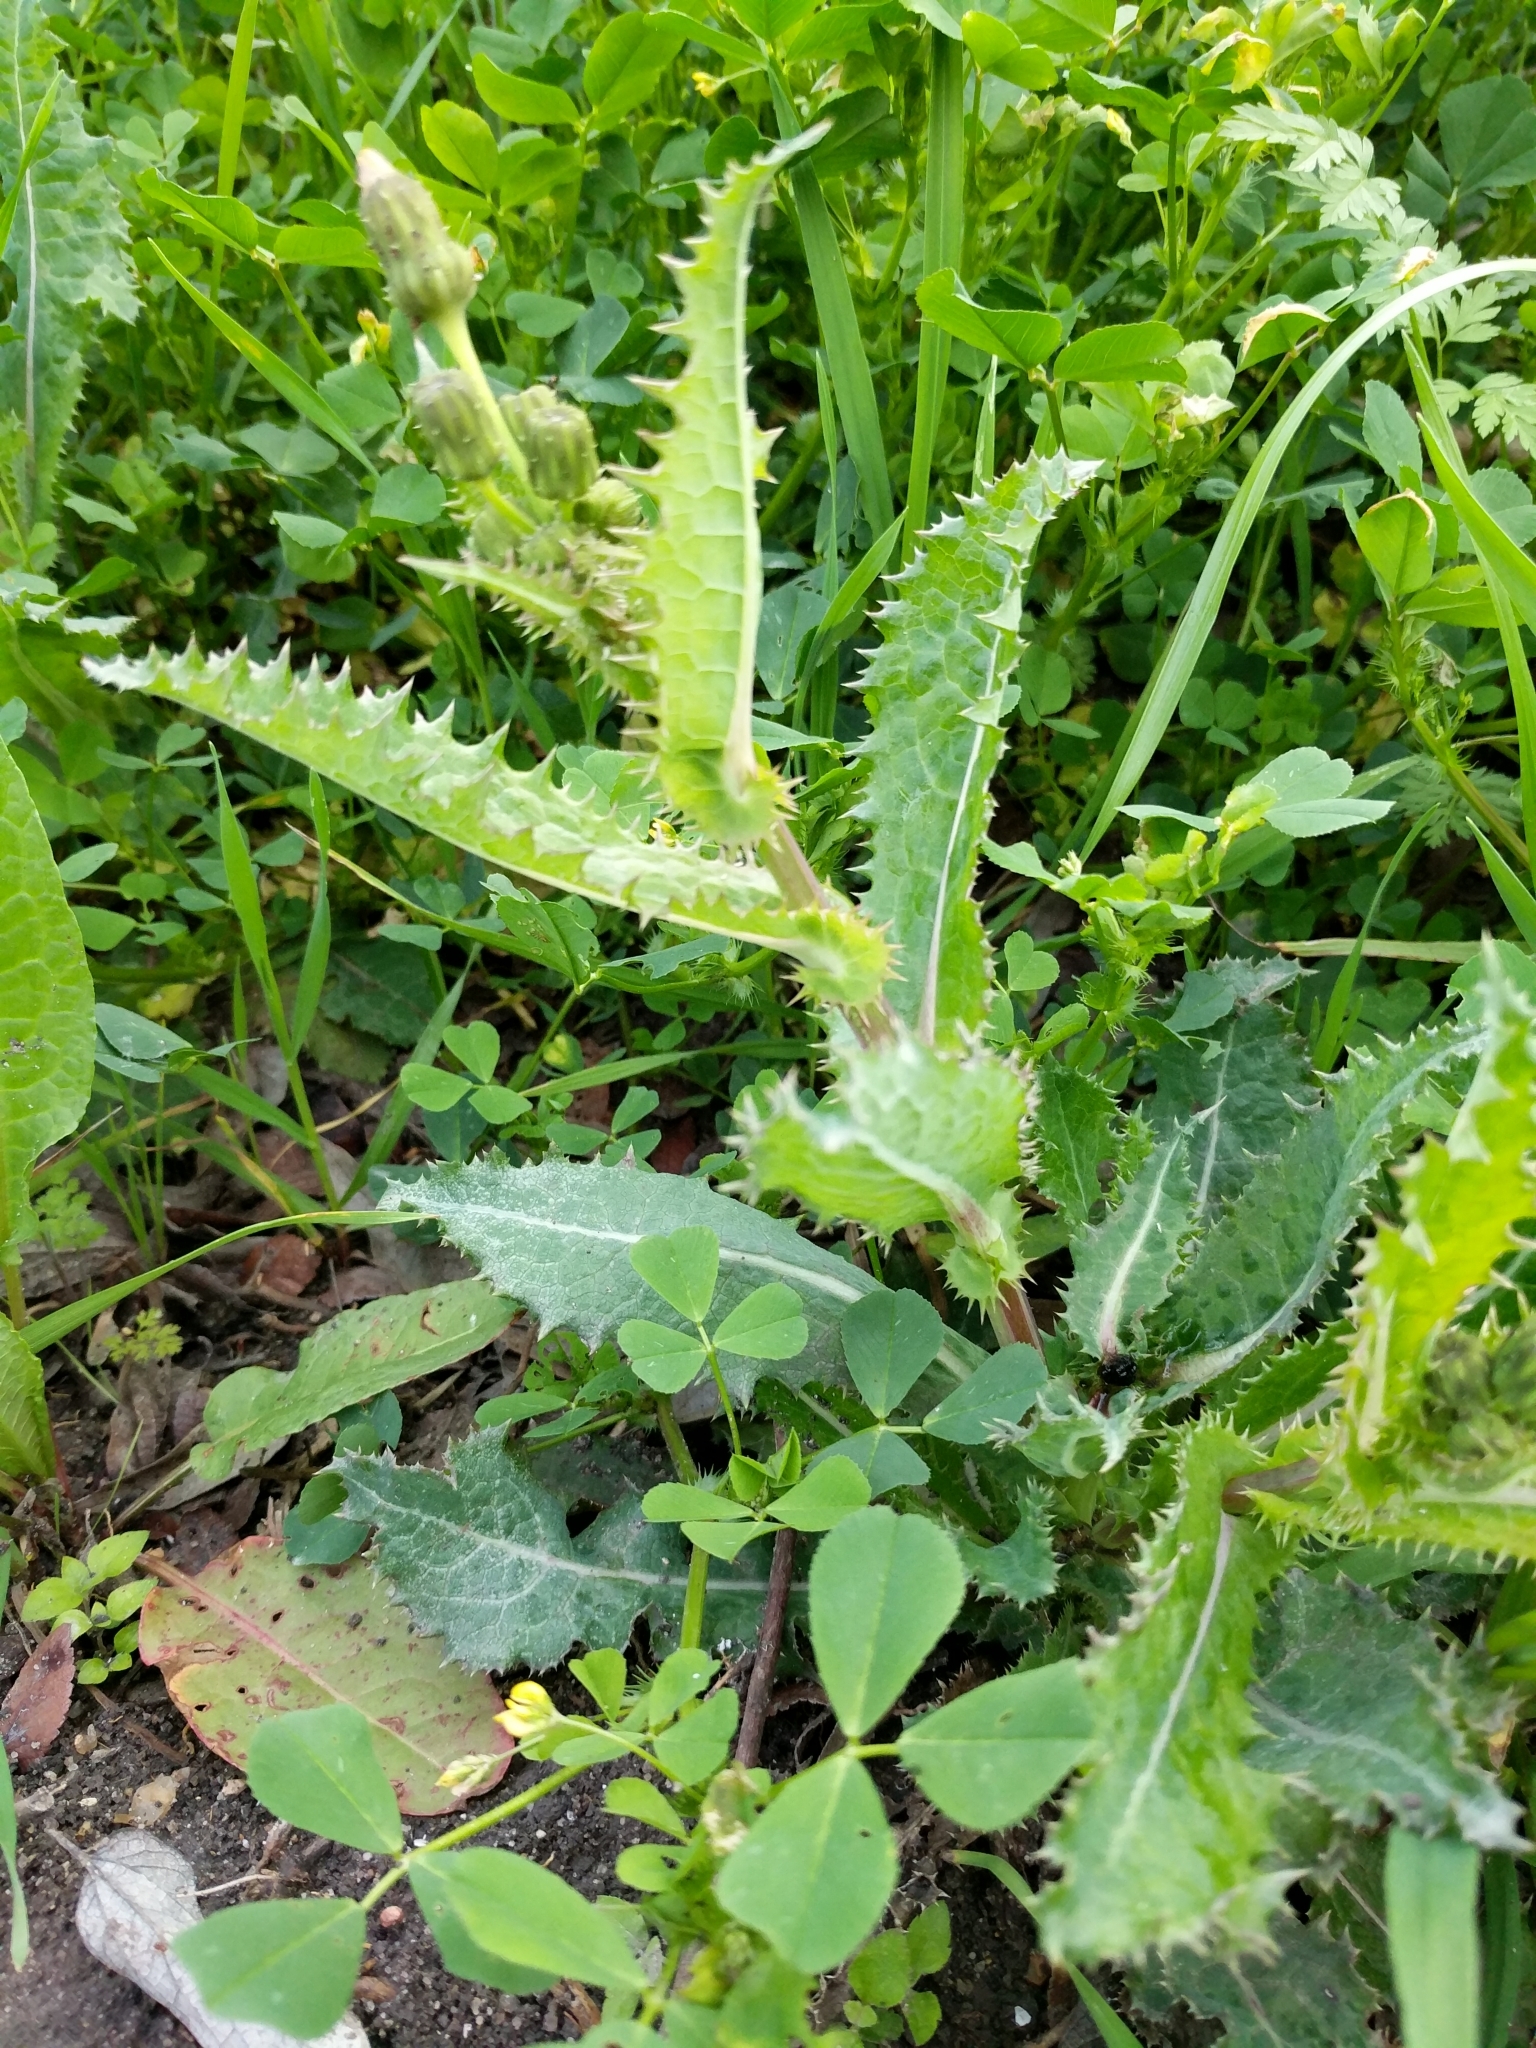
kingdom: Plantae
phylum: Tracheophyta
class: Magnoliopsida
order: Asterales
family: Asteraceae
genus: Sonchus
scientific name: Sonchus asper
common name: Prickly sow-thistle
